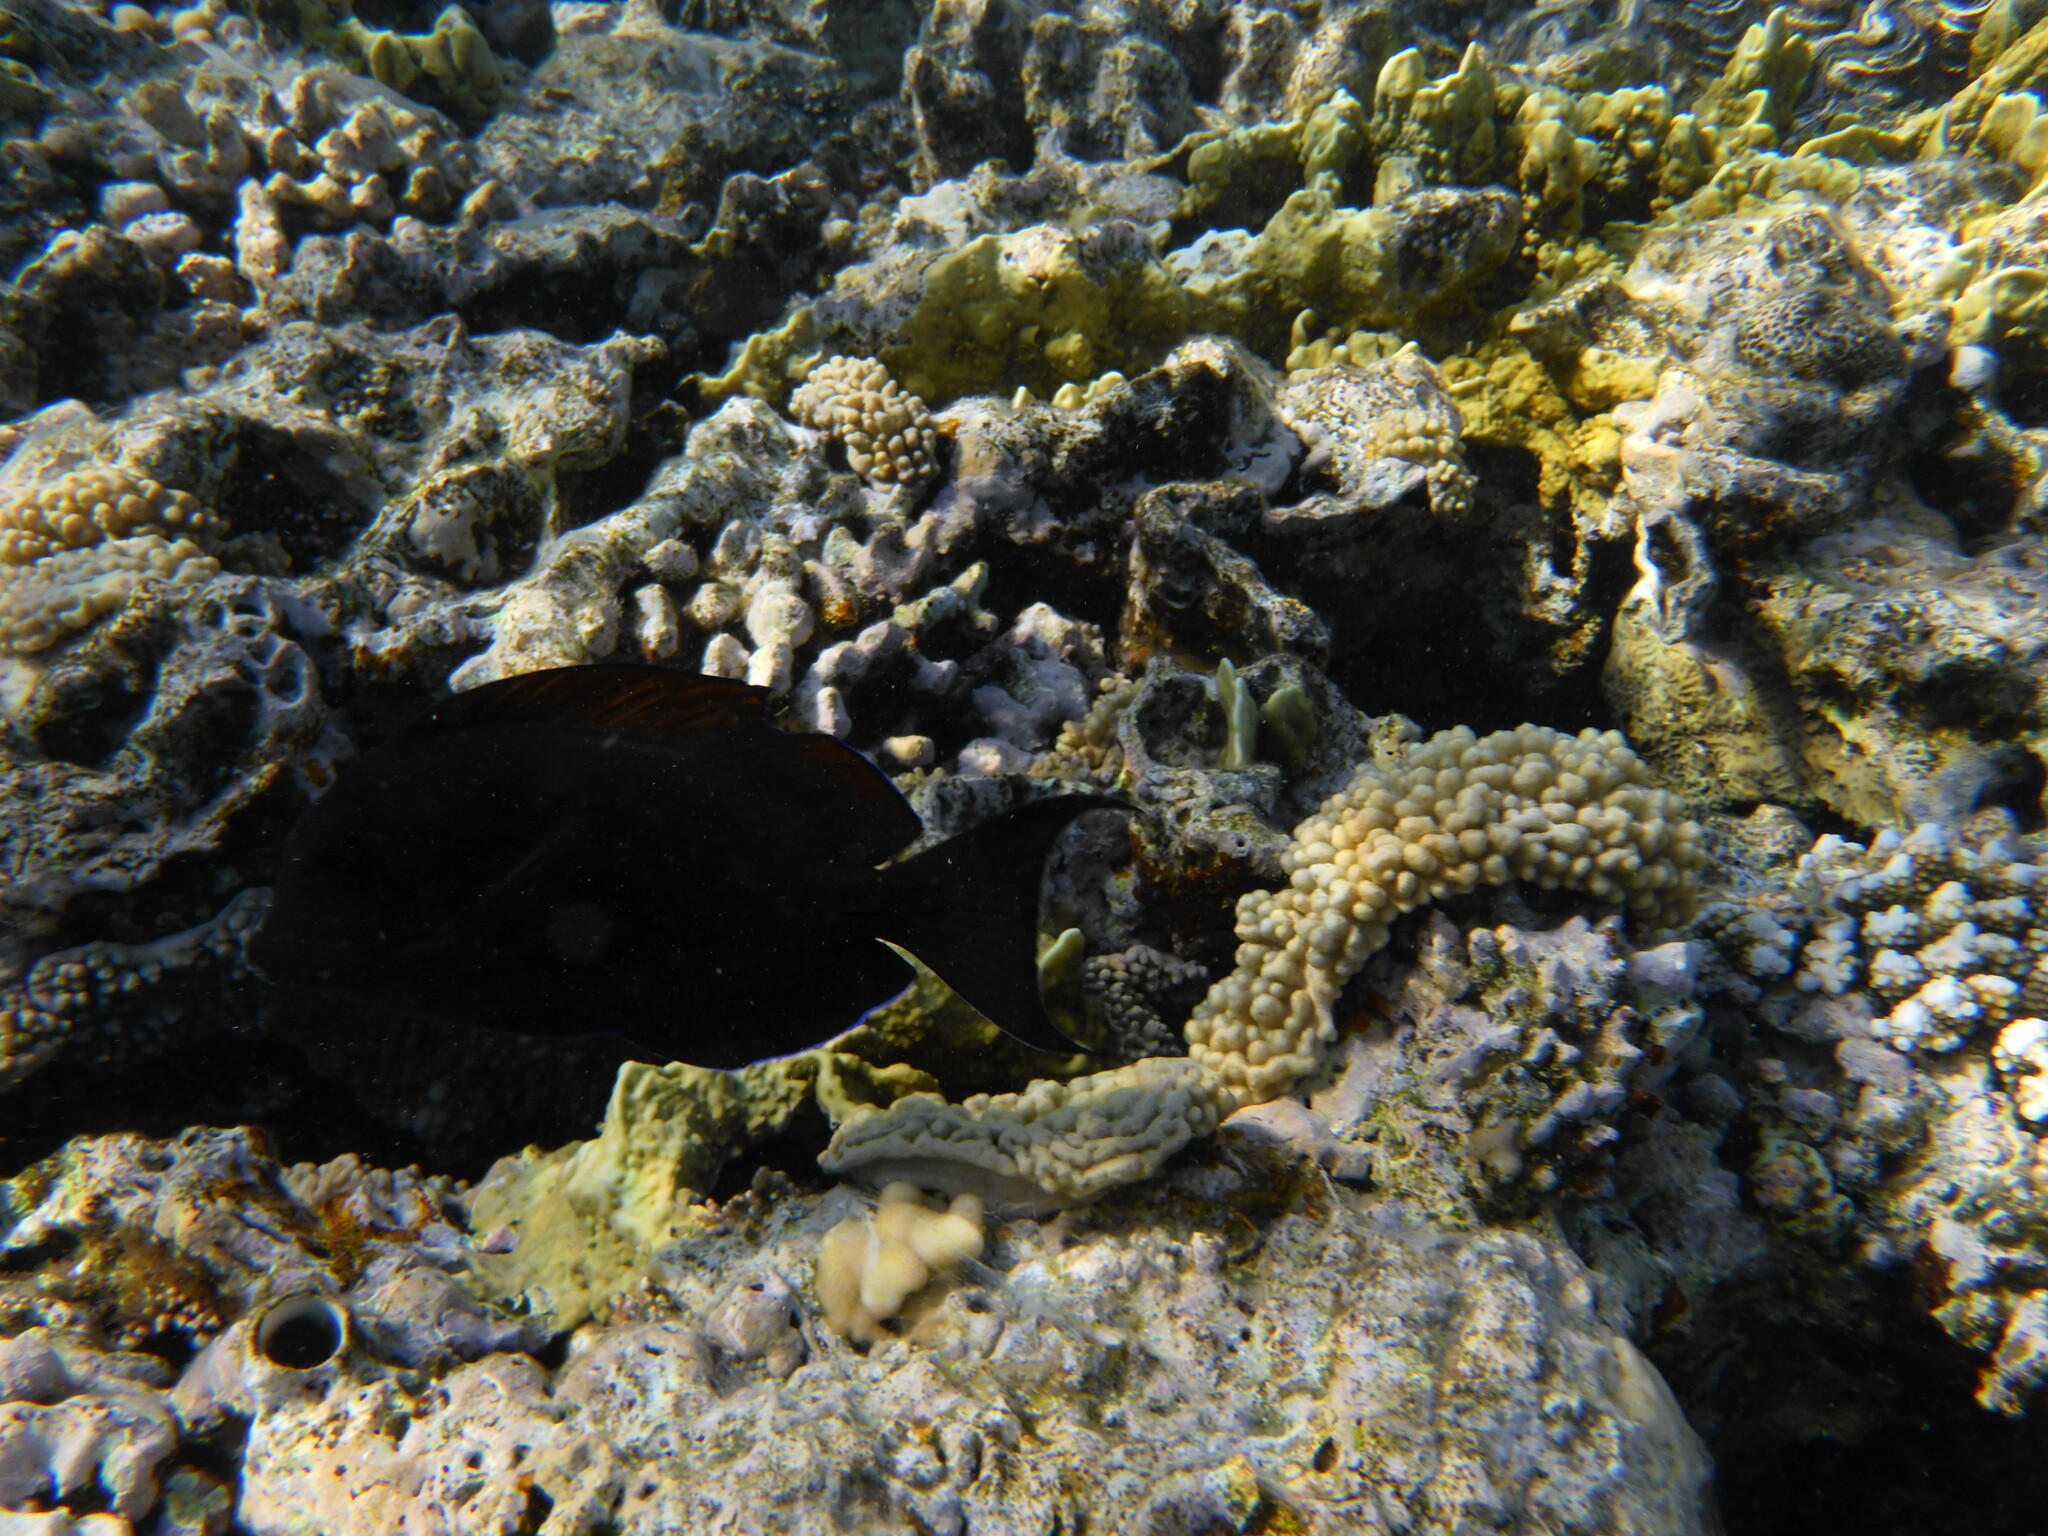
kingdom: Animalia
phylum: Chordata
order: Perciformes
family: Acanthuridae
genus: Acanthurus
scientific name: Acanthurus nigrofuscus
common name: Blackspot surgeonfish
